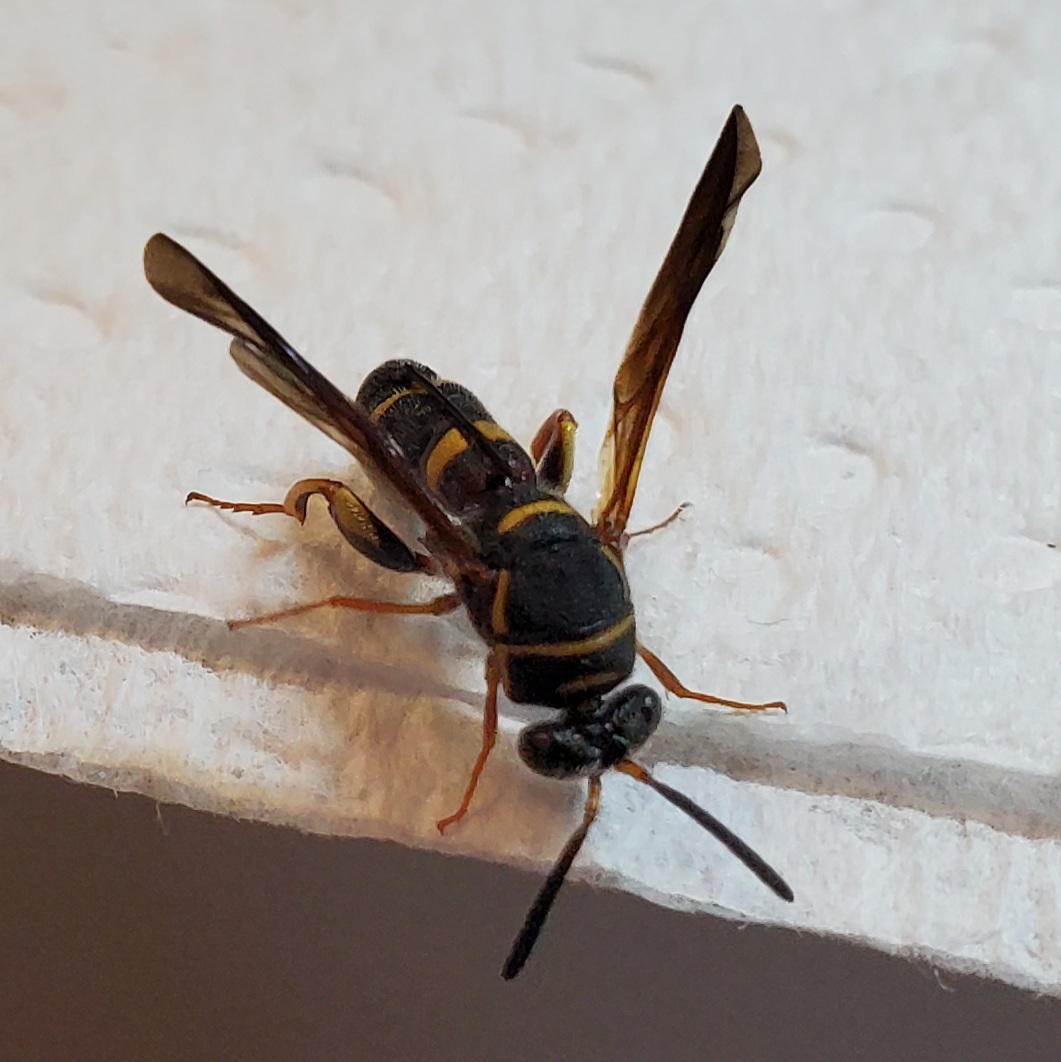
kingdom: Animalia
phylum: Arthropoda
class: Insecta
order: Hymenoptera
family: Leucospidae
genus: Leucospis
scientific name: Leucospis affinis
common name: Wasp
